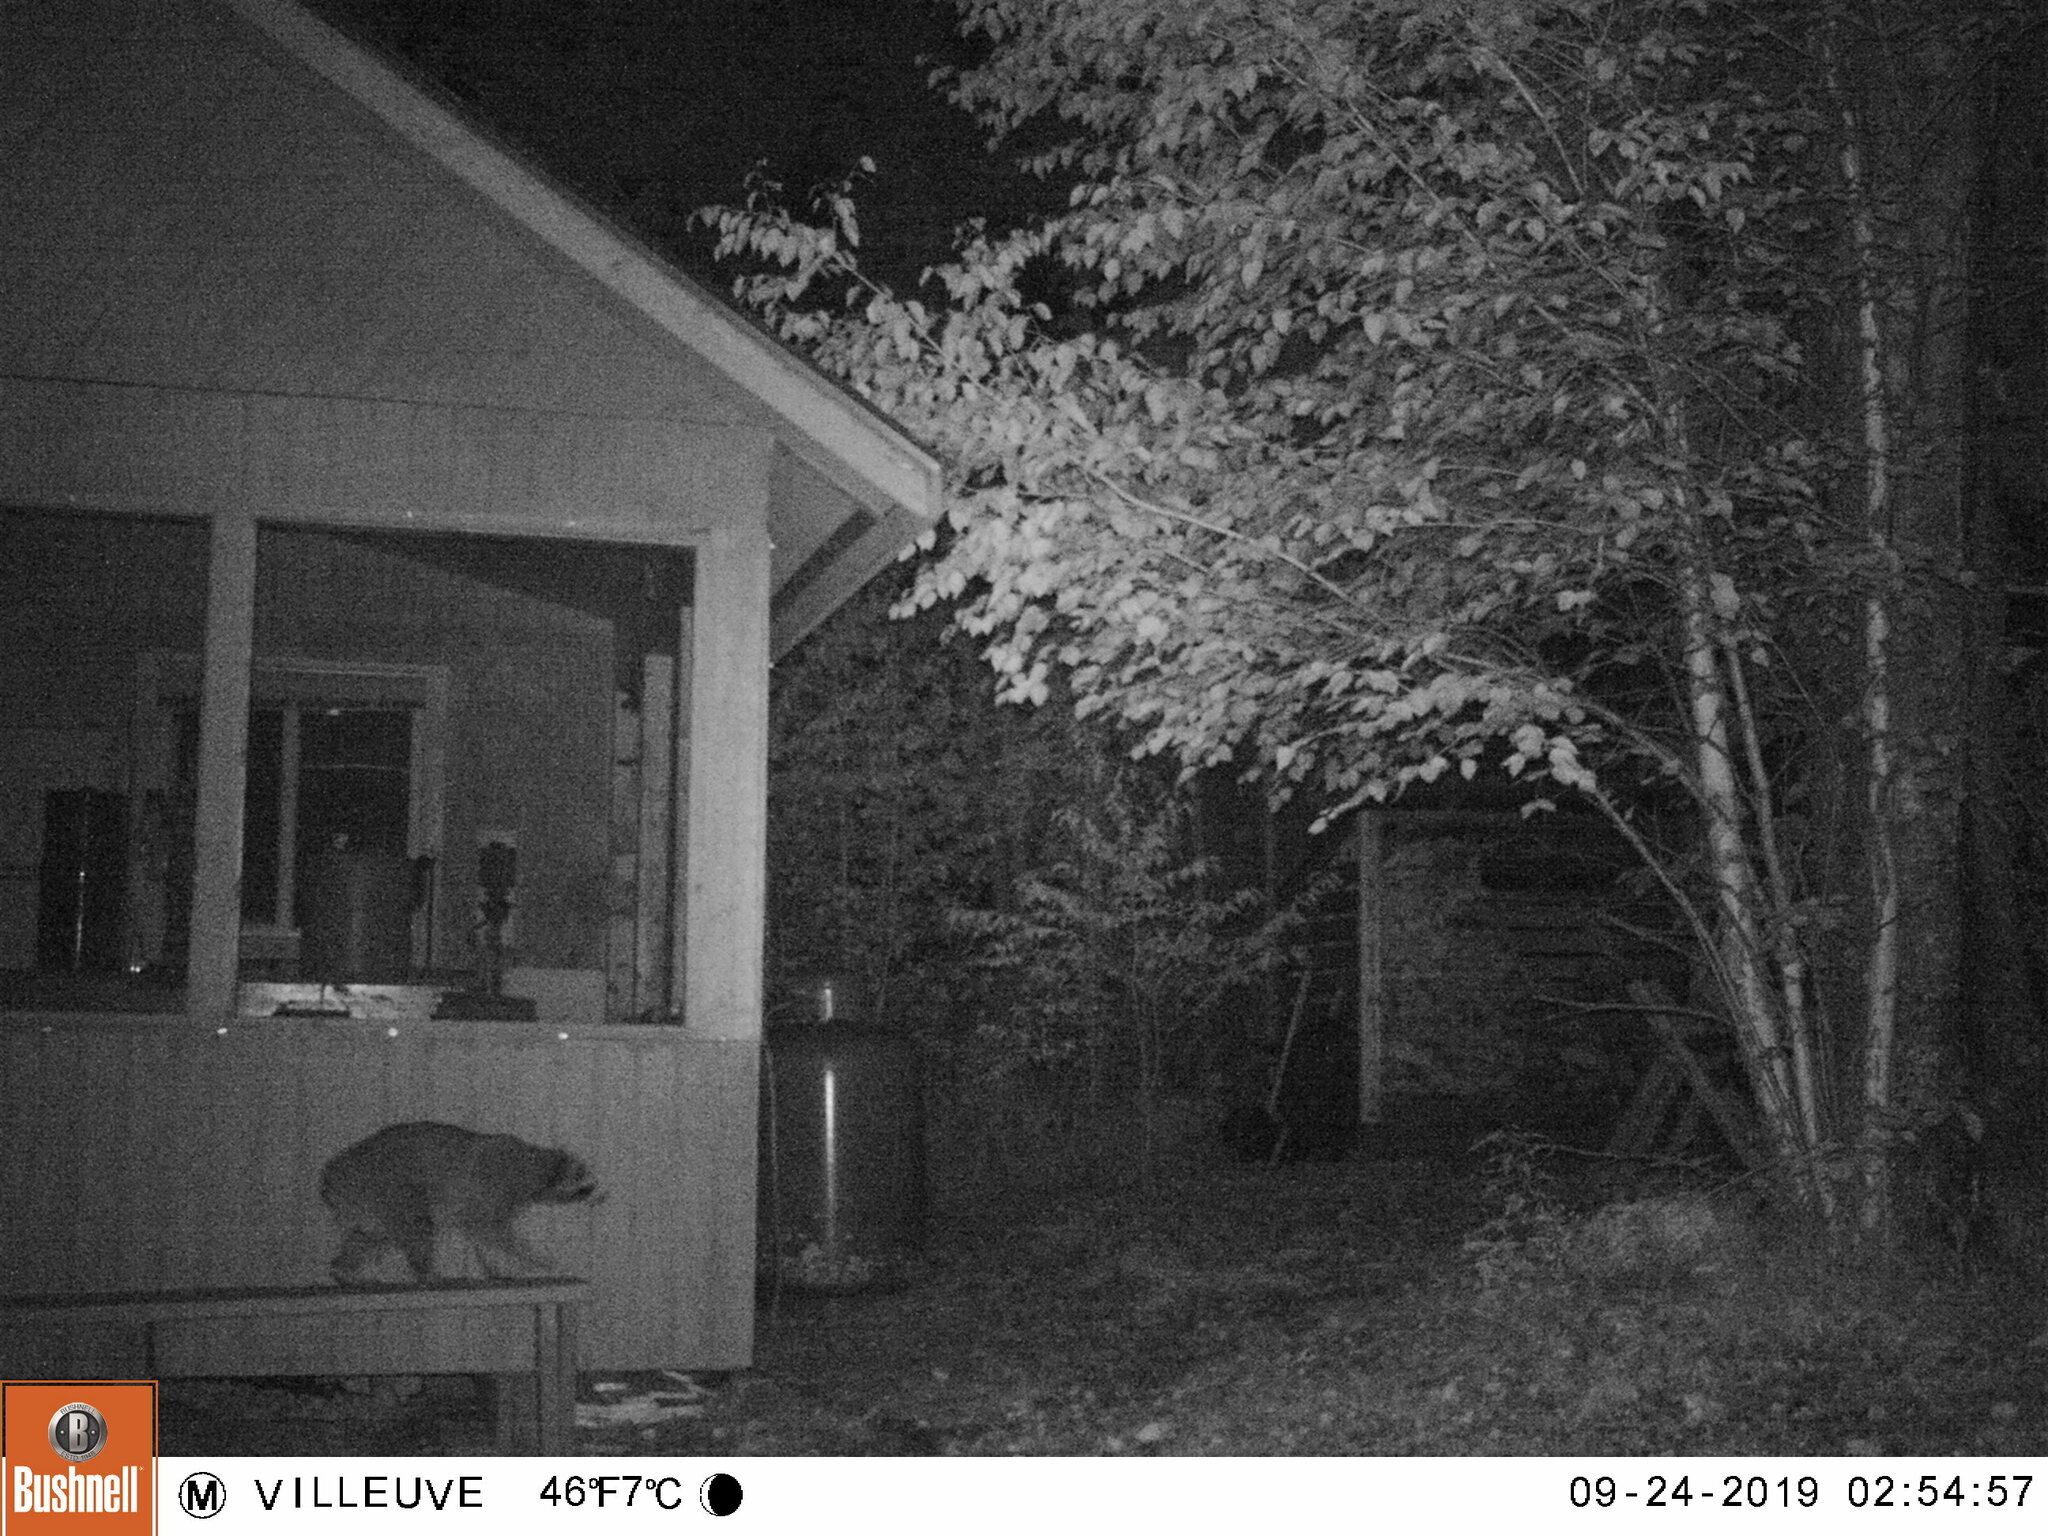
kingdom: Animalia
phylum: Chordata
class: Mammalia
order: Carnivora
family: Procyonidae
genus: Procyon
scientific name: Procyon lotor
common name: Raccoon
